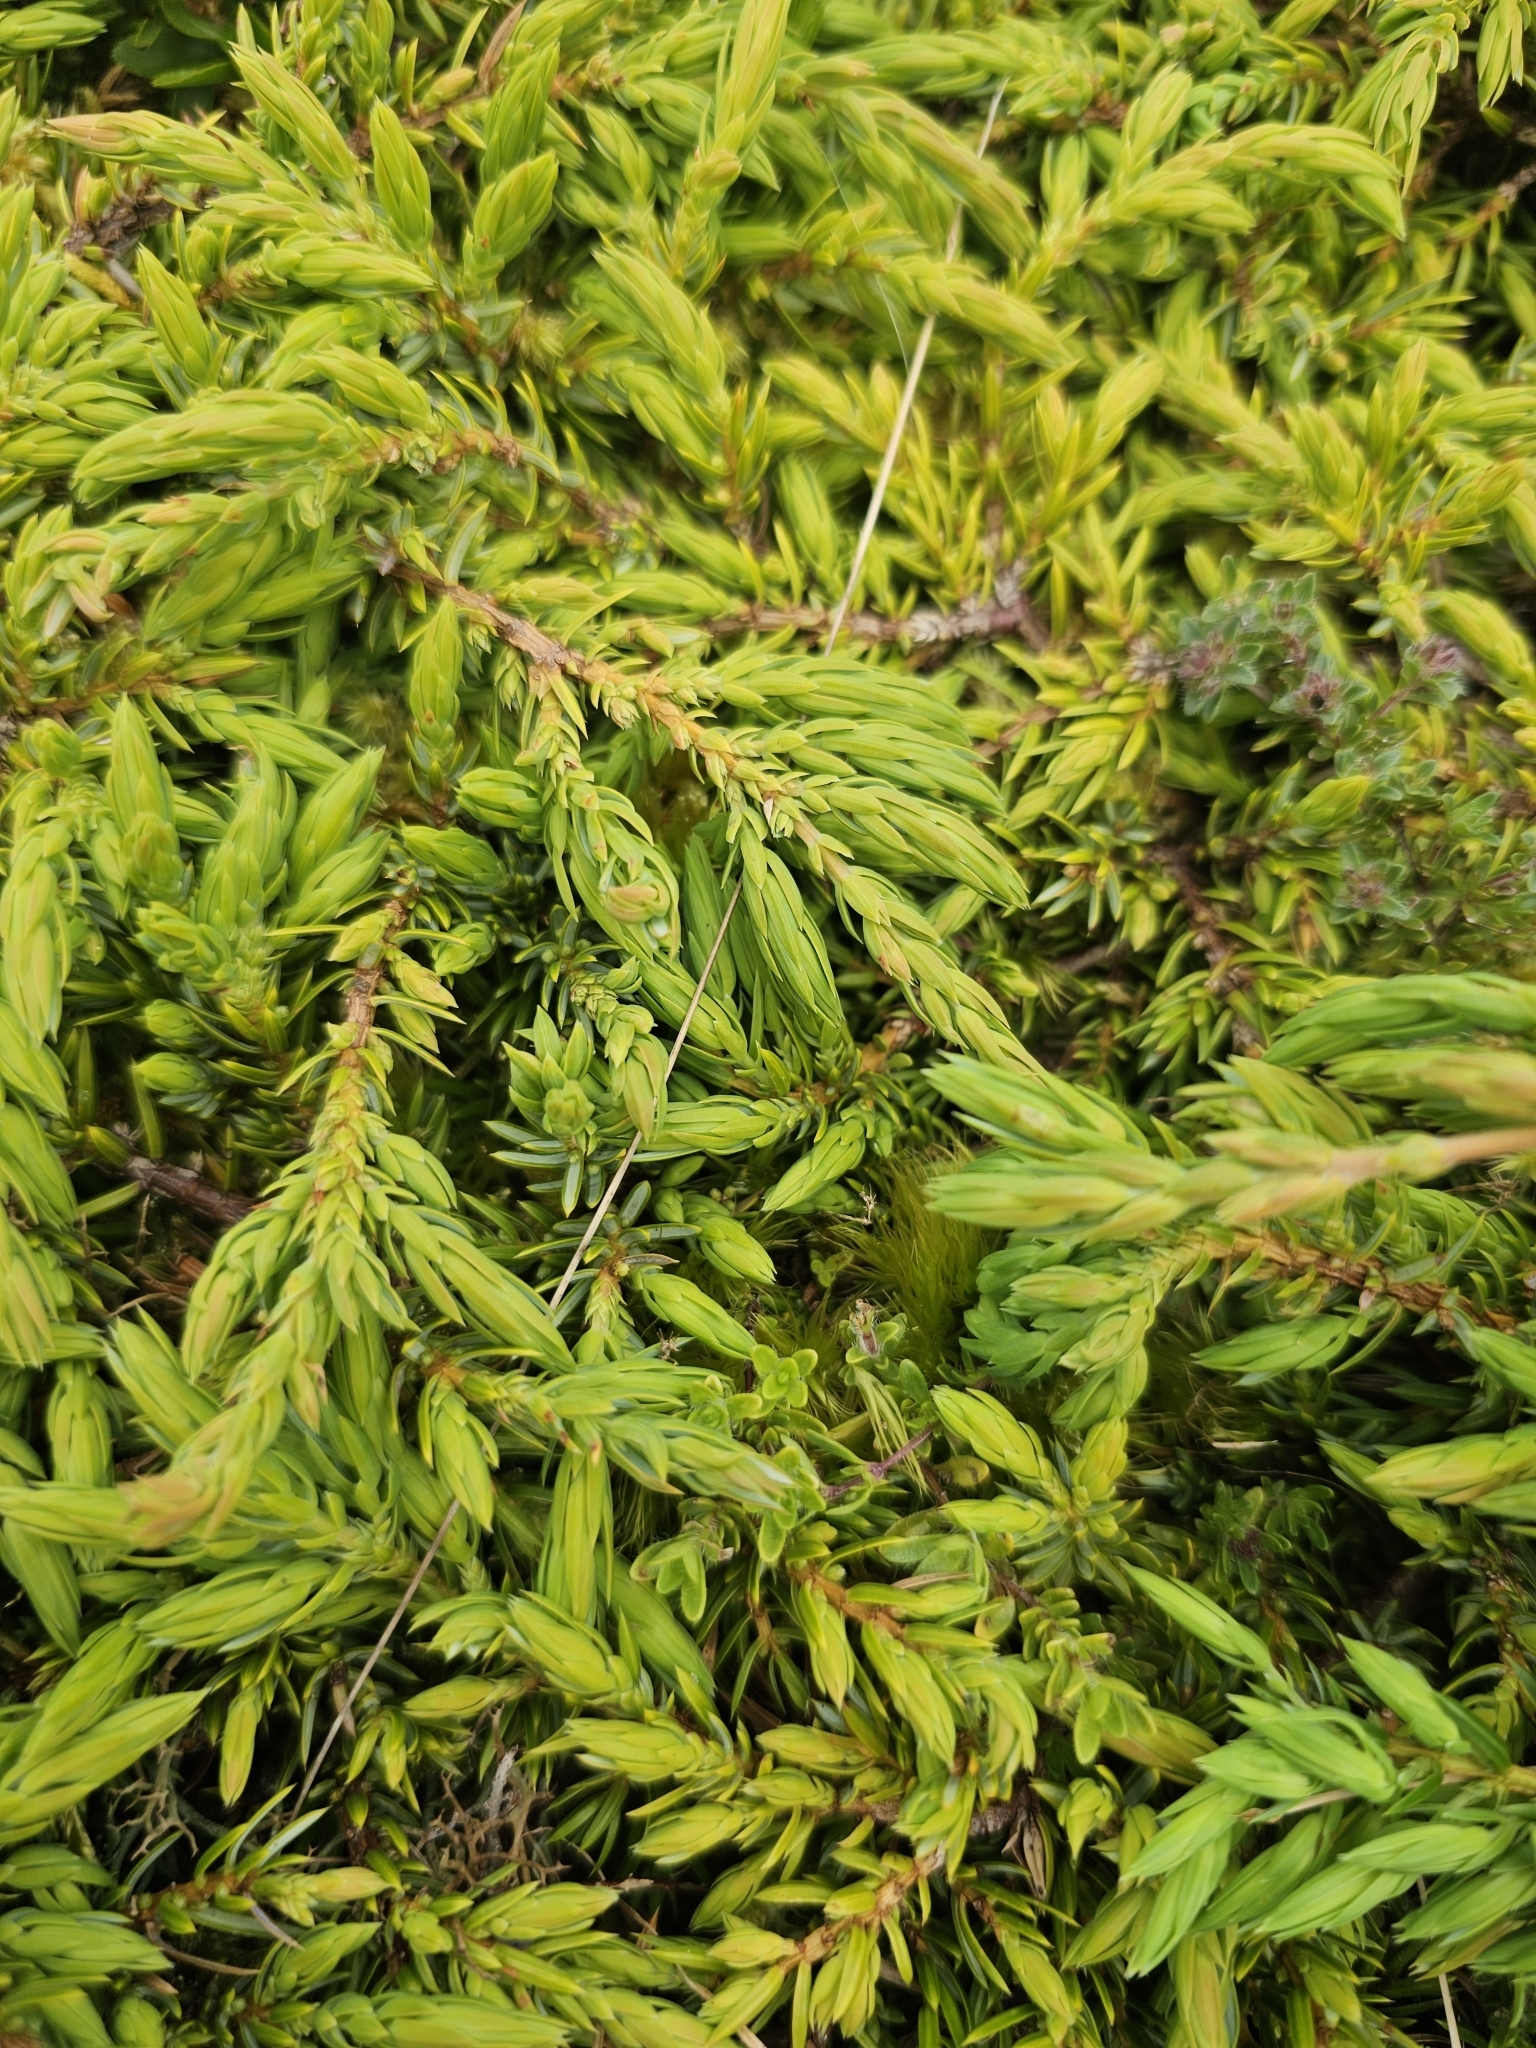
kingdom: Plantae
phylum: Tracheophyta
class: Pinopsida
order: Pinales
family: Cupressaceae
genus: Juniperus
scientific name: Juniperus communis
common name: Common juniper
